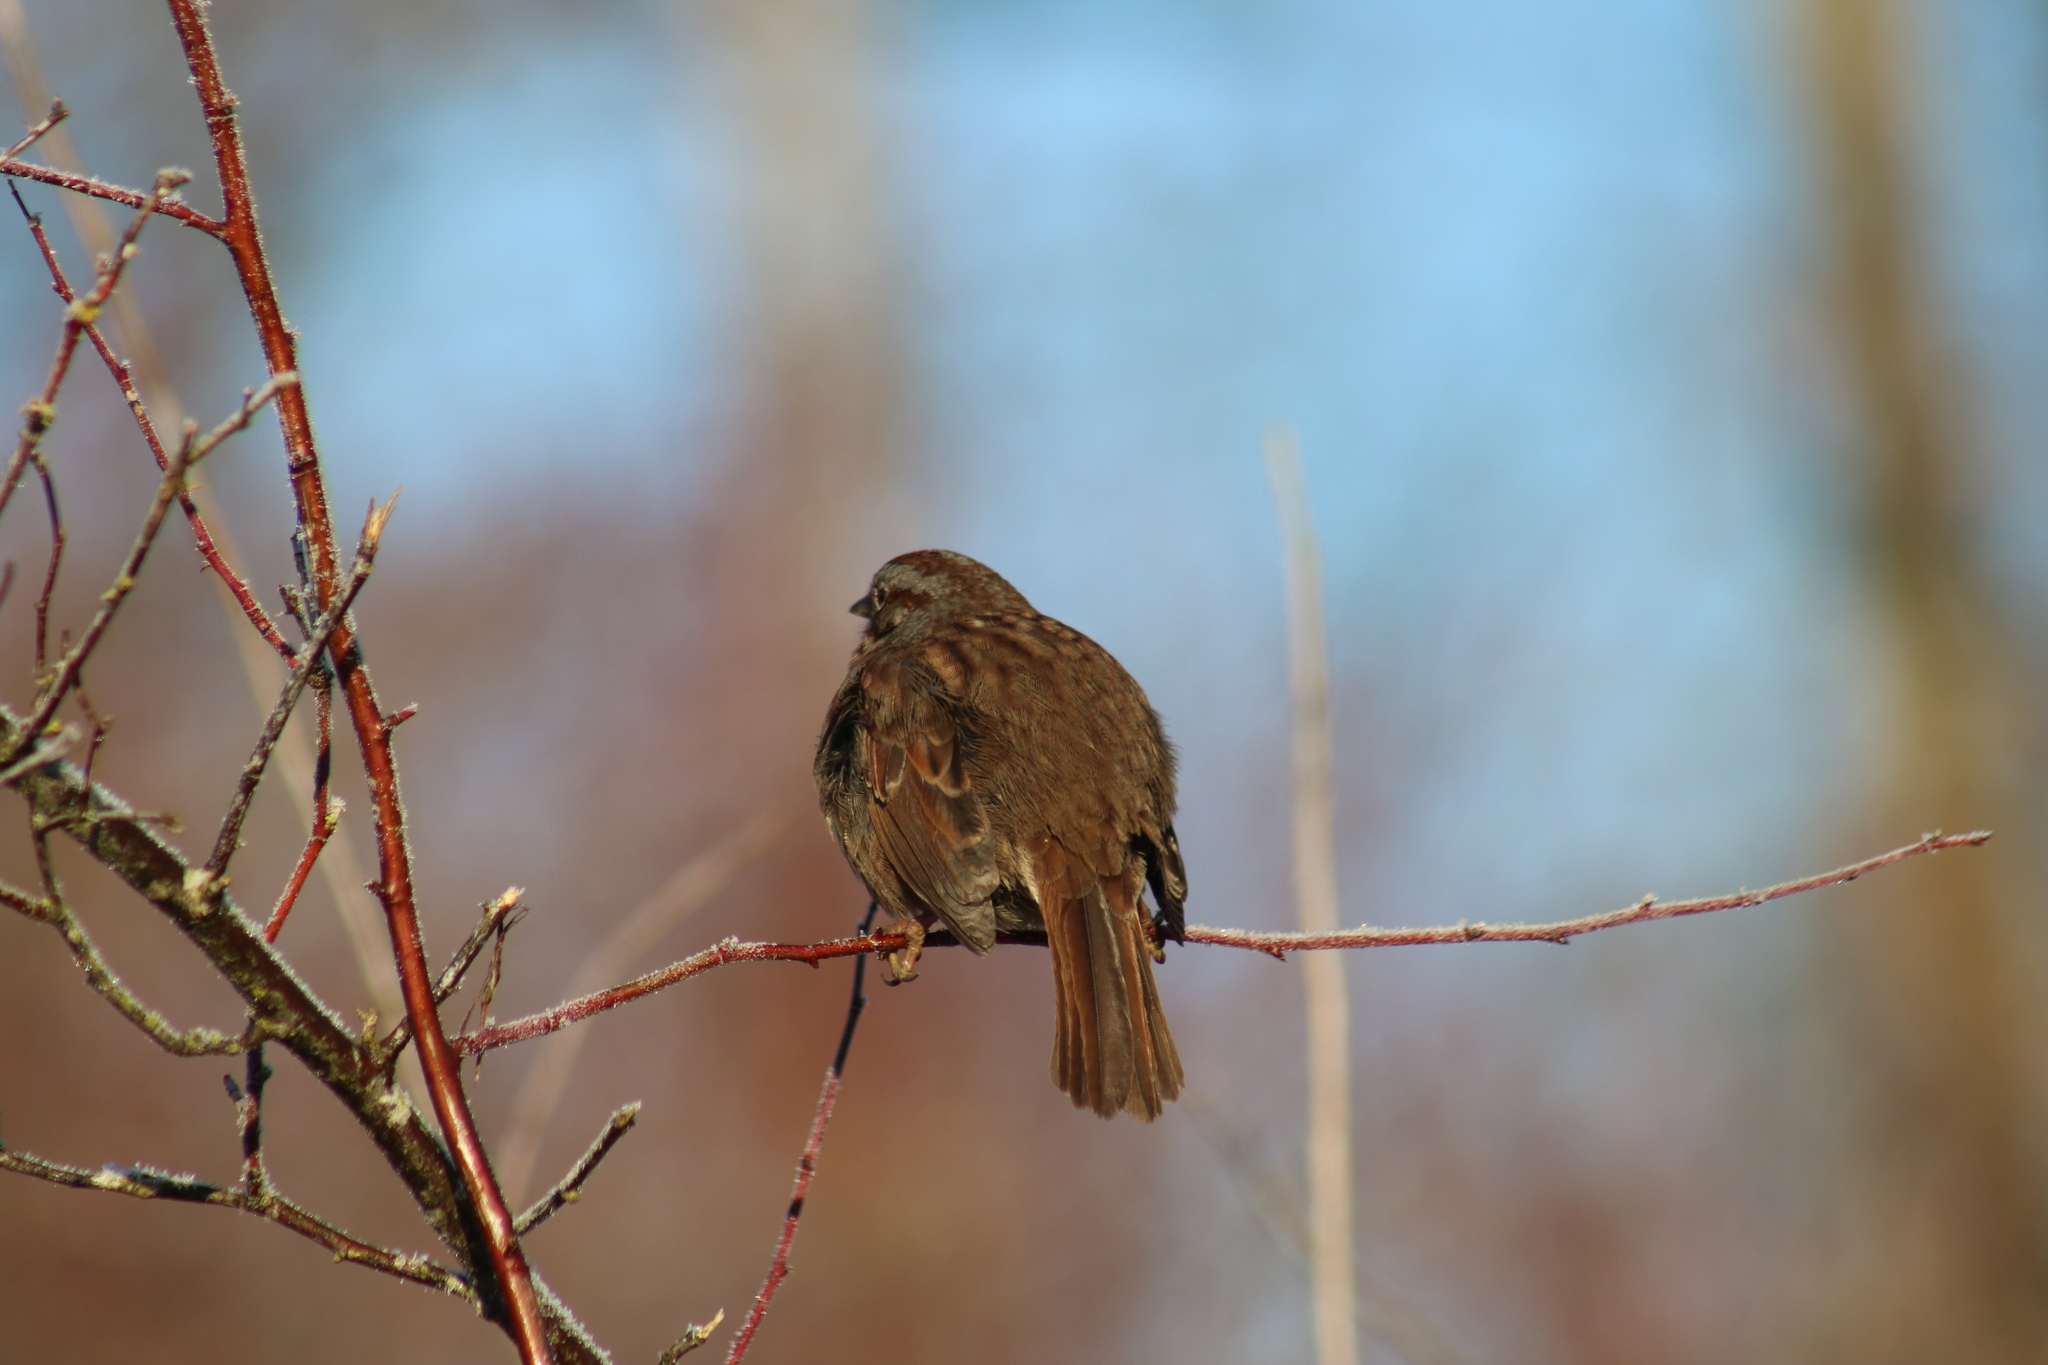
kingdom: Animalia
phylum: Chordata
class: Aves
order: Passeriformes
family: Passerellidae
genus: Melospiza
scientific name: Melospiza melodia
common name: Song sparrow
